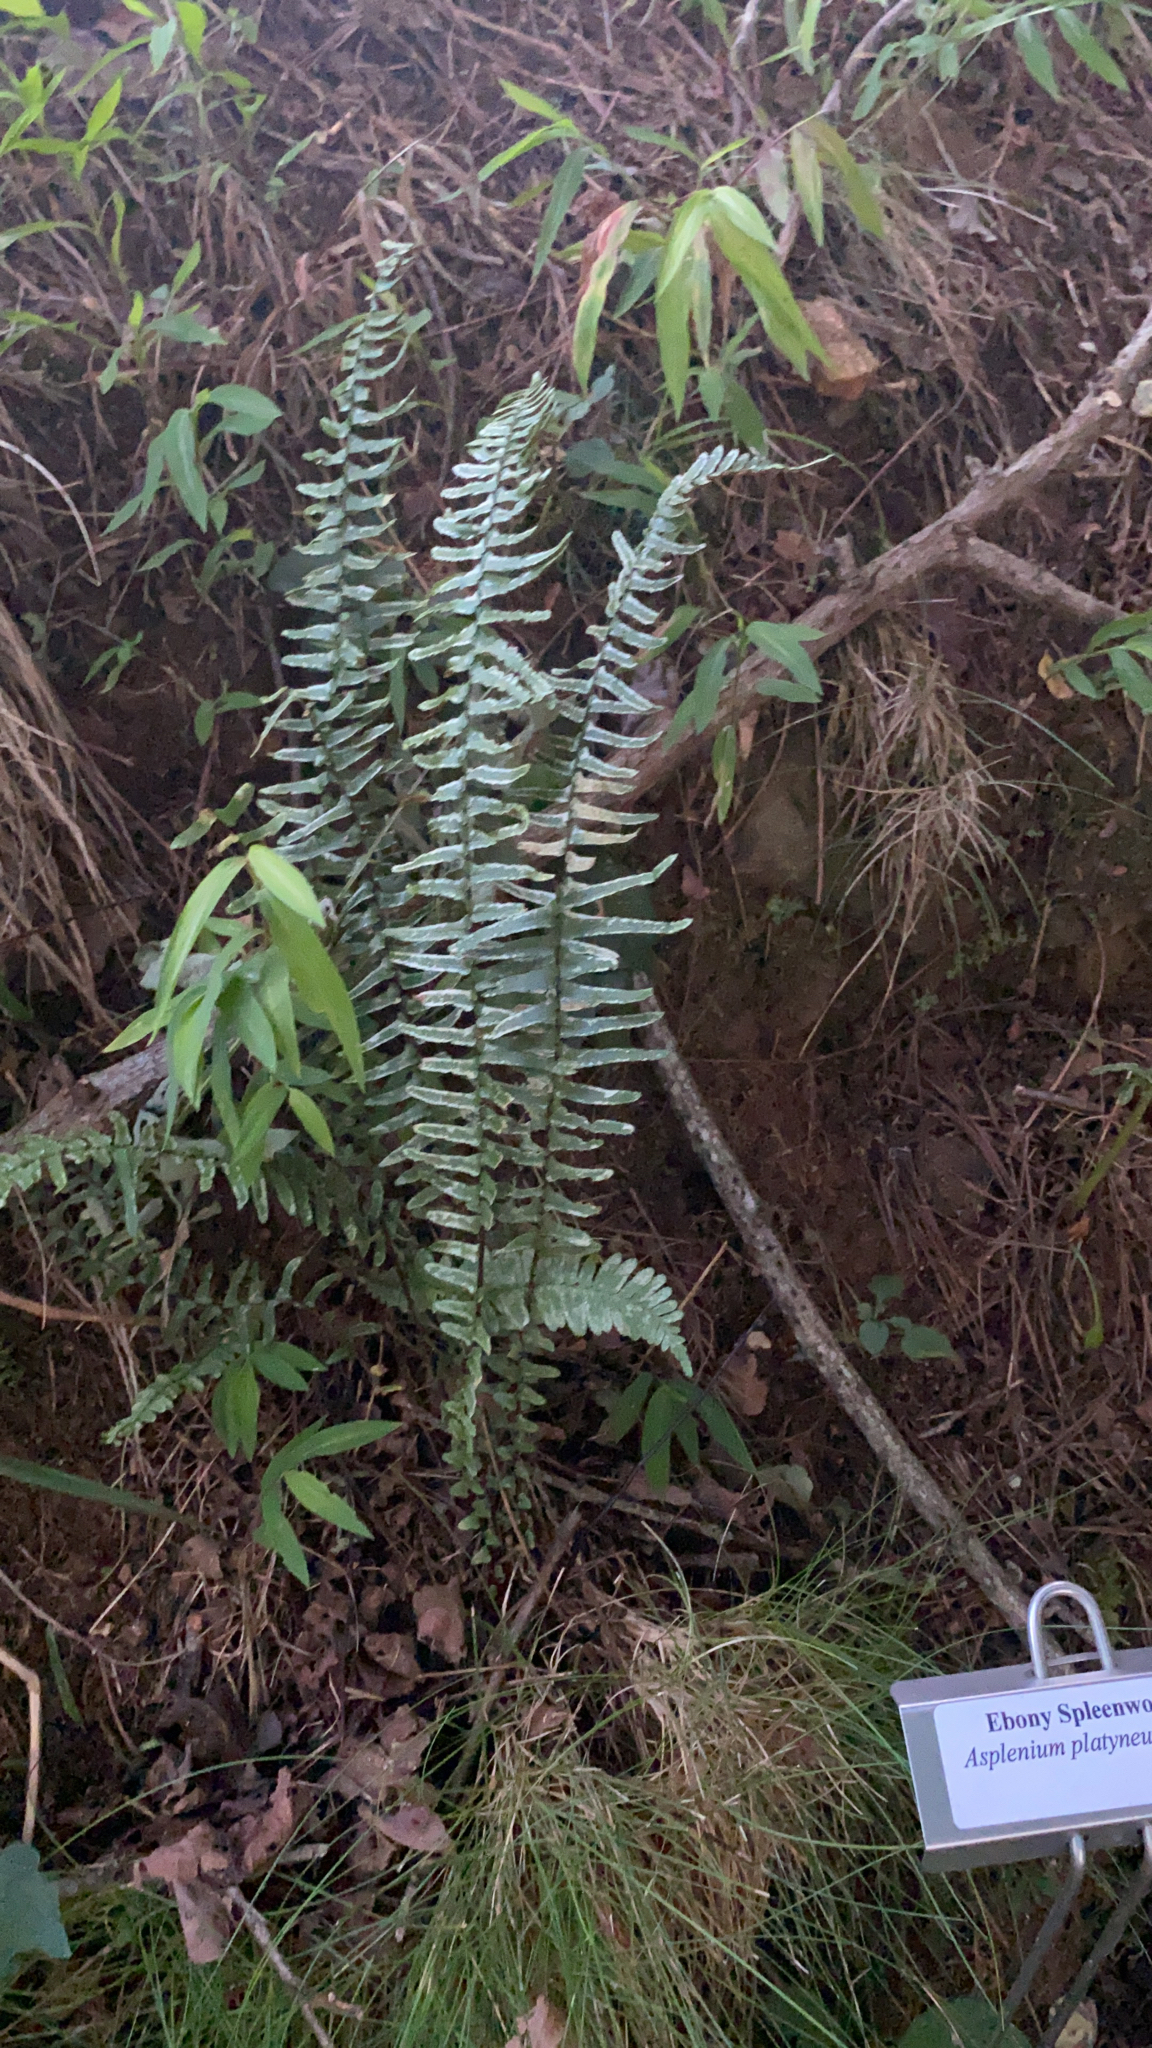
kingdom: Plantae
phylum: Tracheophyta
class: Polypodiopsida
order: Polypodiales
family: Aspleniaceae
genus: Asplenium
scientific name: Asplenium platyneuron
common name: Ebony spleenwort
